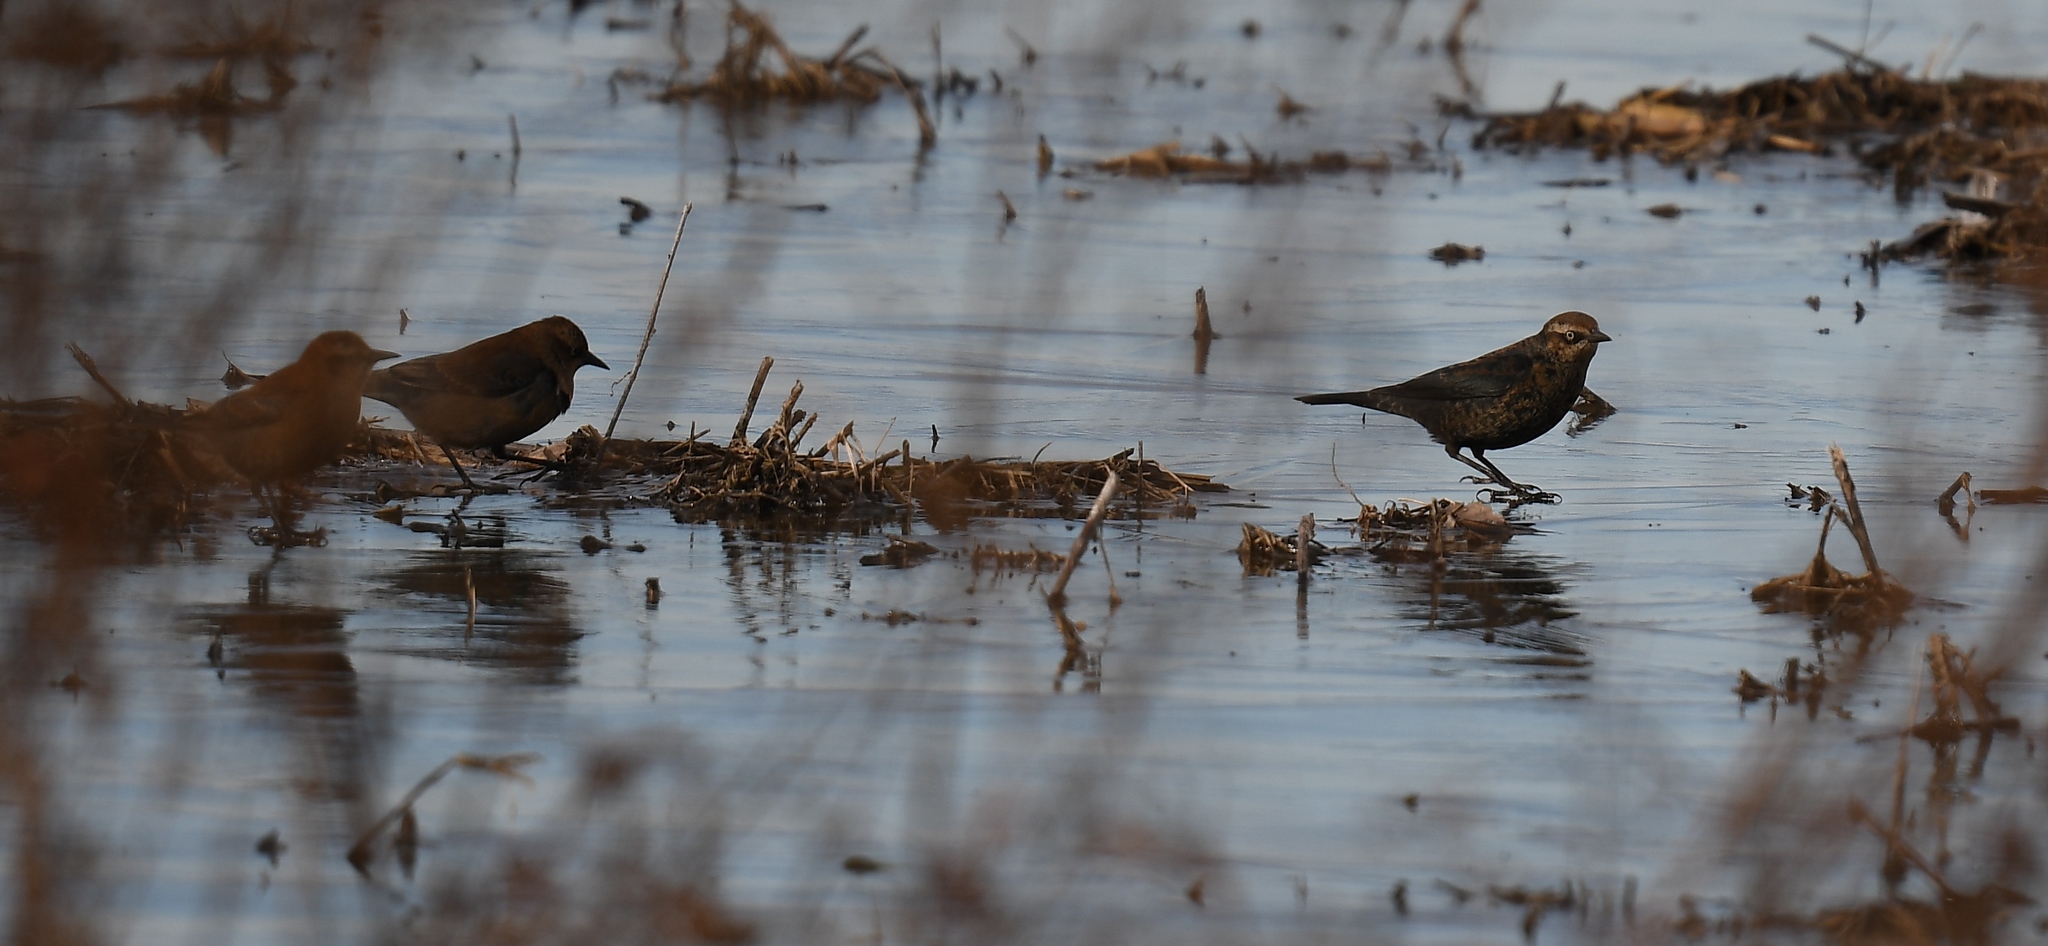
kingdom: Animalia
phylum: Chordata
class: Aves
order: Passeriformes
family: Icteridae
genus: Euphagus
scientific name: Euphagus carolinus
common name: Rusty blackbird
